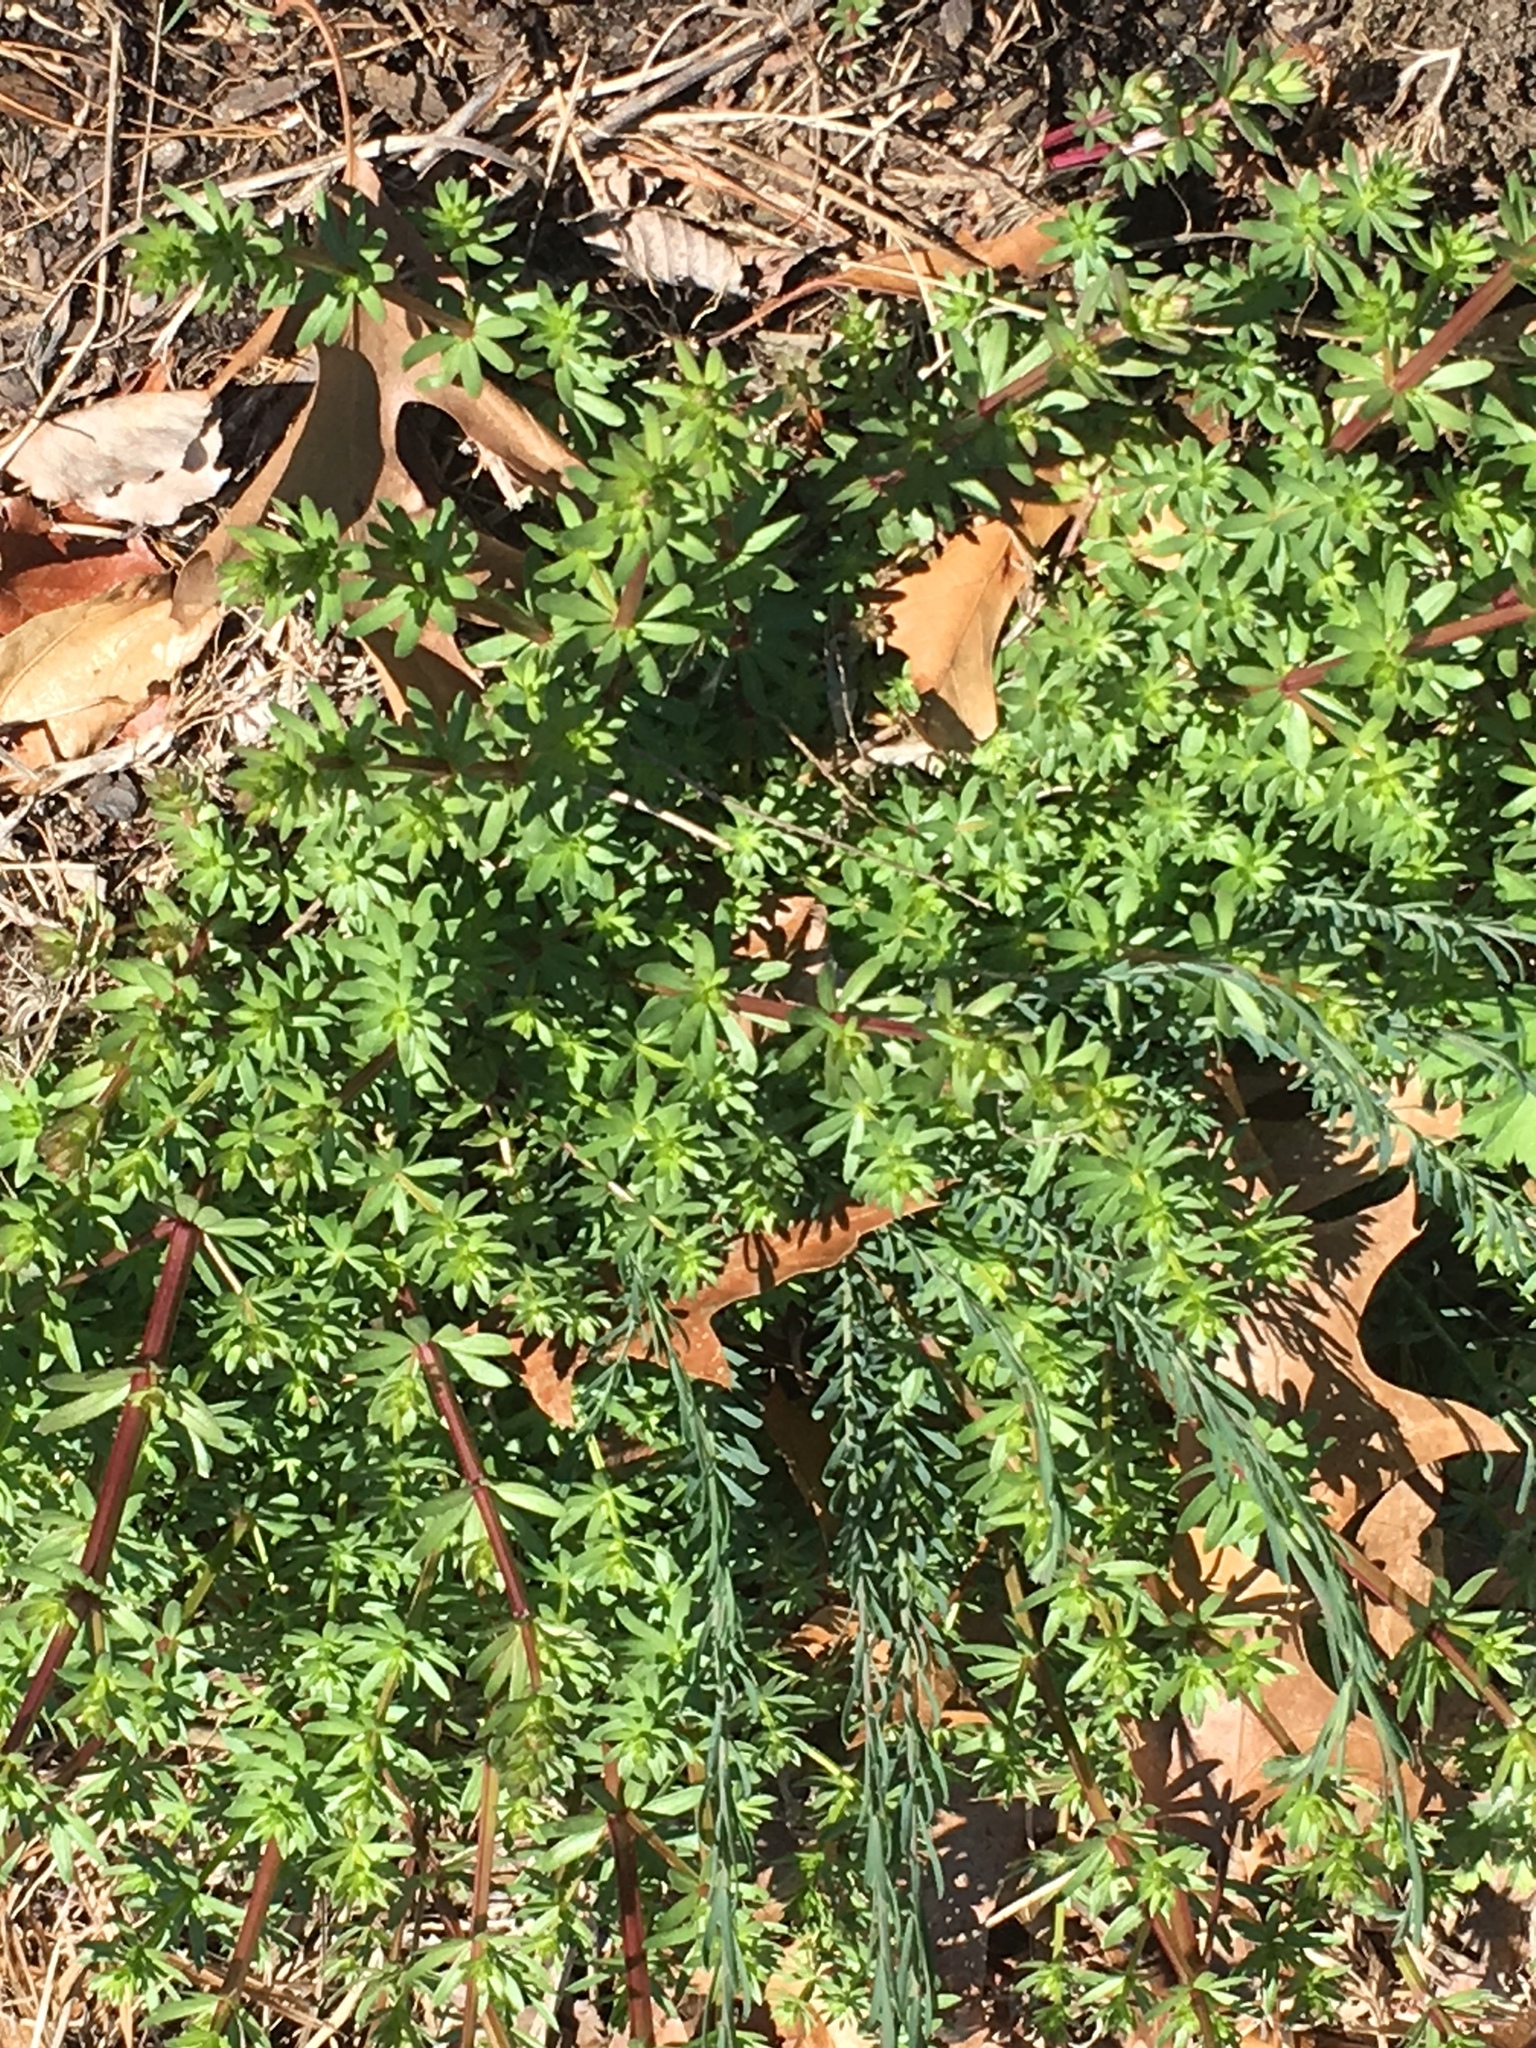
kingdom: Plantae
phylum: Tracheophyta
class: Magnoliopsida
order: Gentianales
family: Rubiaceae
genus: Galium
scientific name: Galium mollugo
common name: Hedge bedstraw
